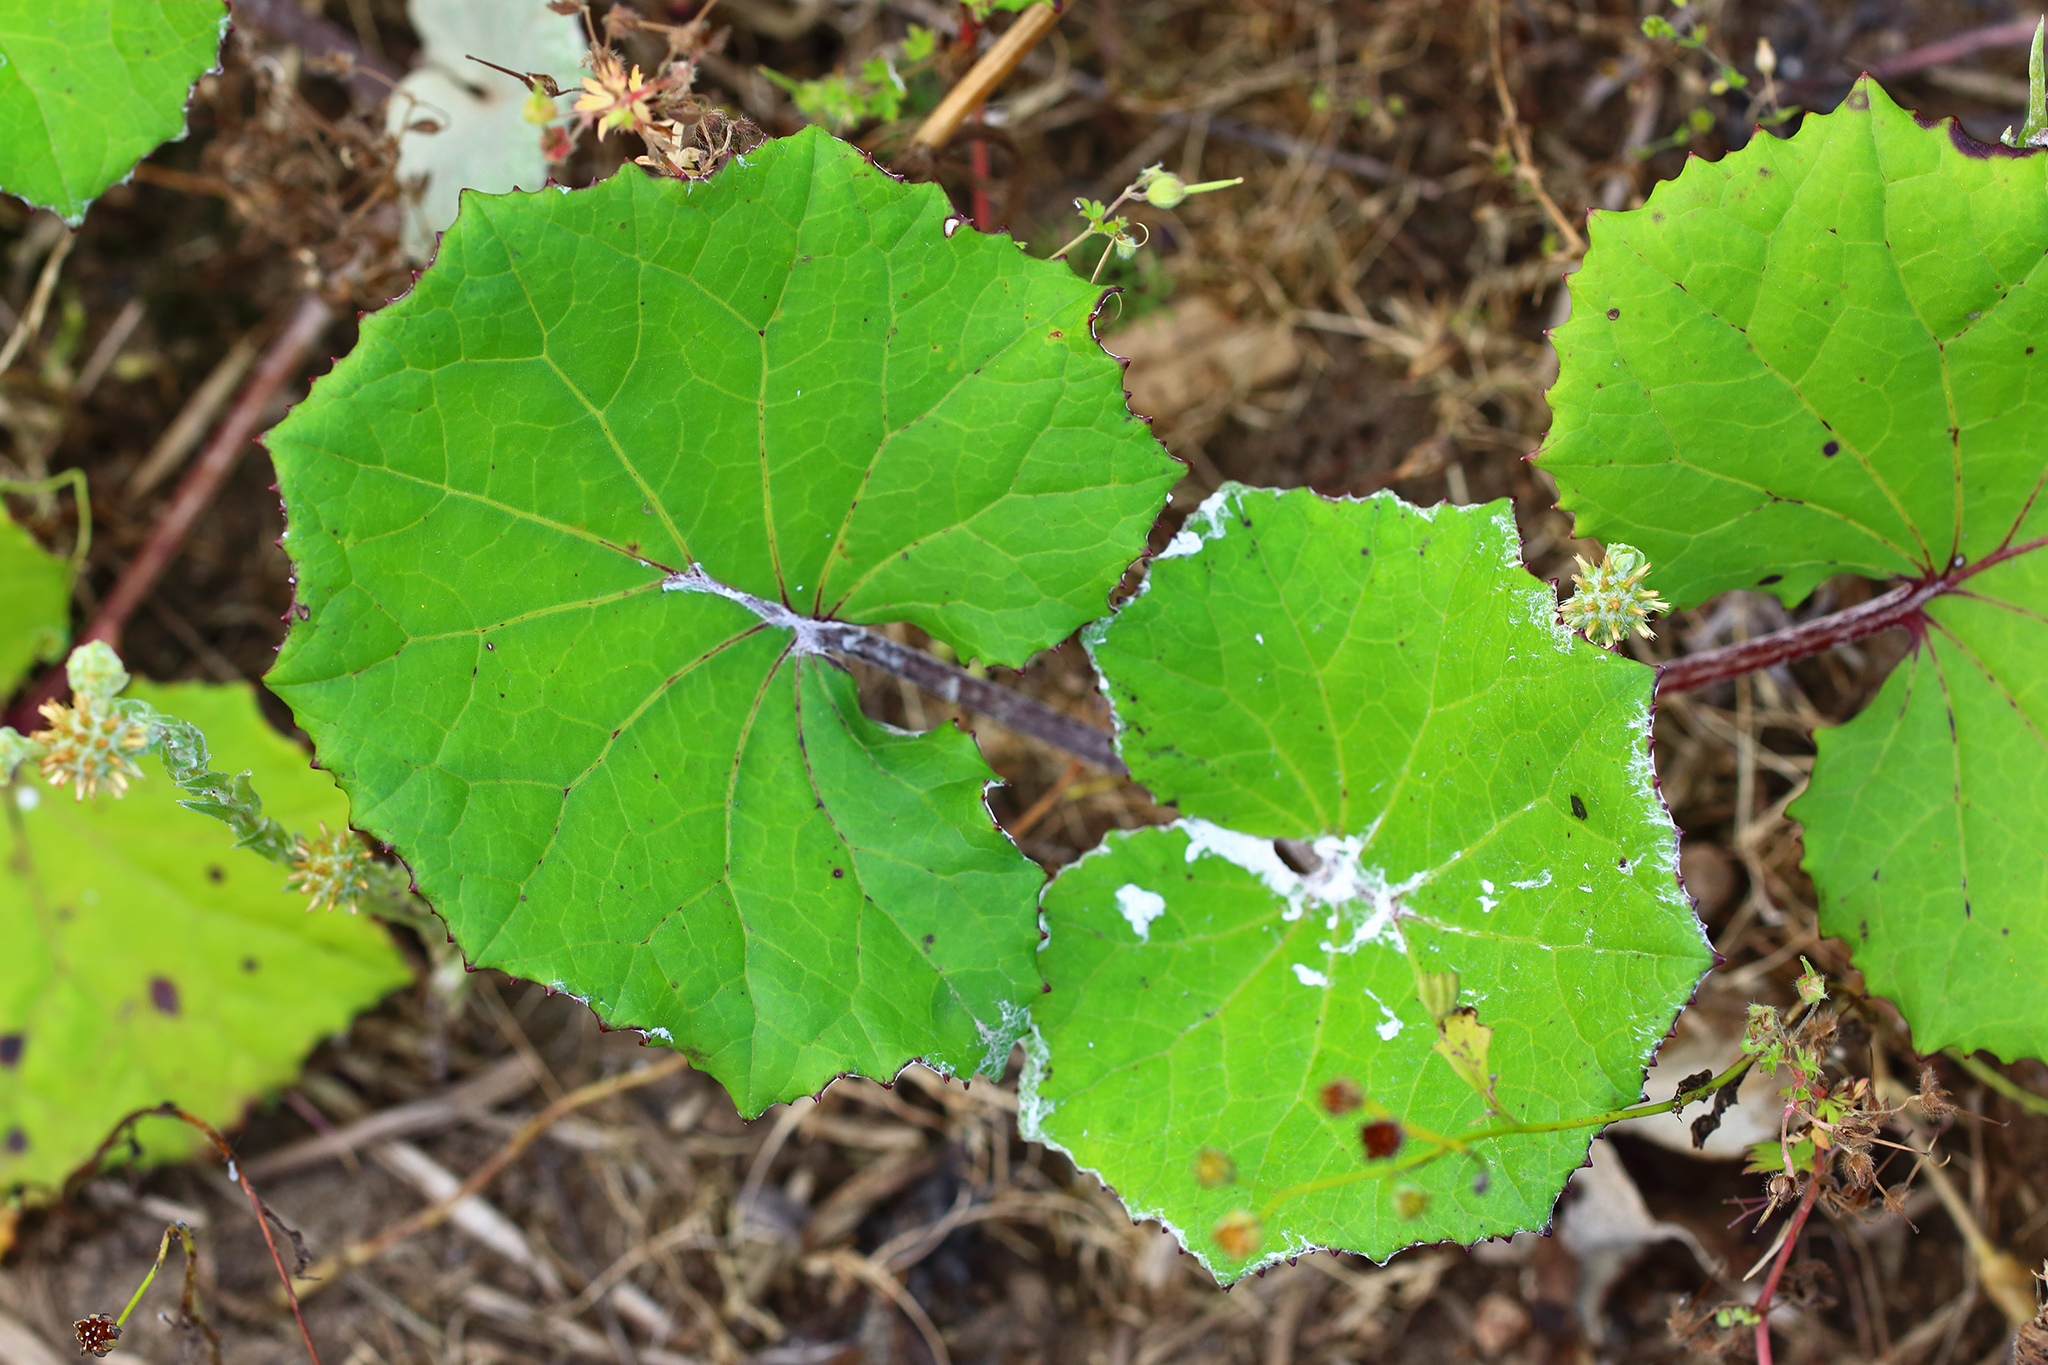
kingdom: Plantae
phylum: Tracheophyta
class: Magnoliopsida
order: Asterales
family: Asteraceae
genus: Tussilago
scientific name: Tussilago farfara
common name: Coltsfoot
